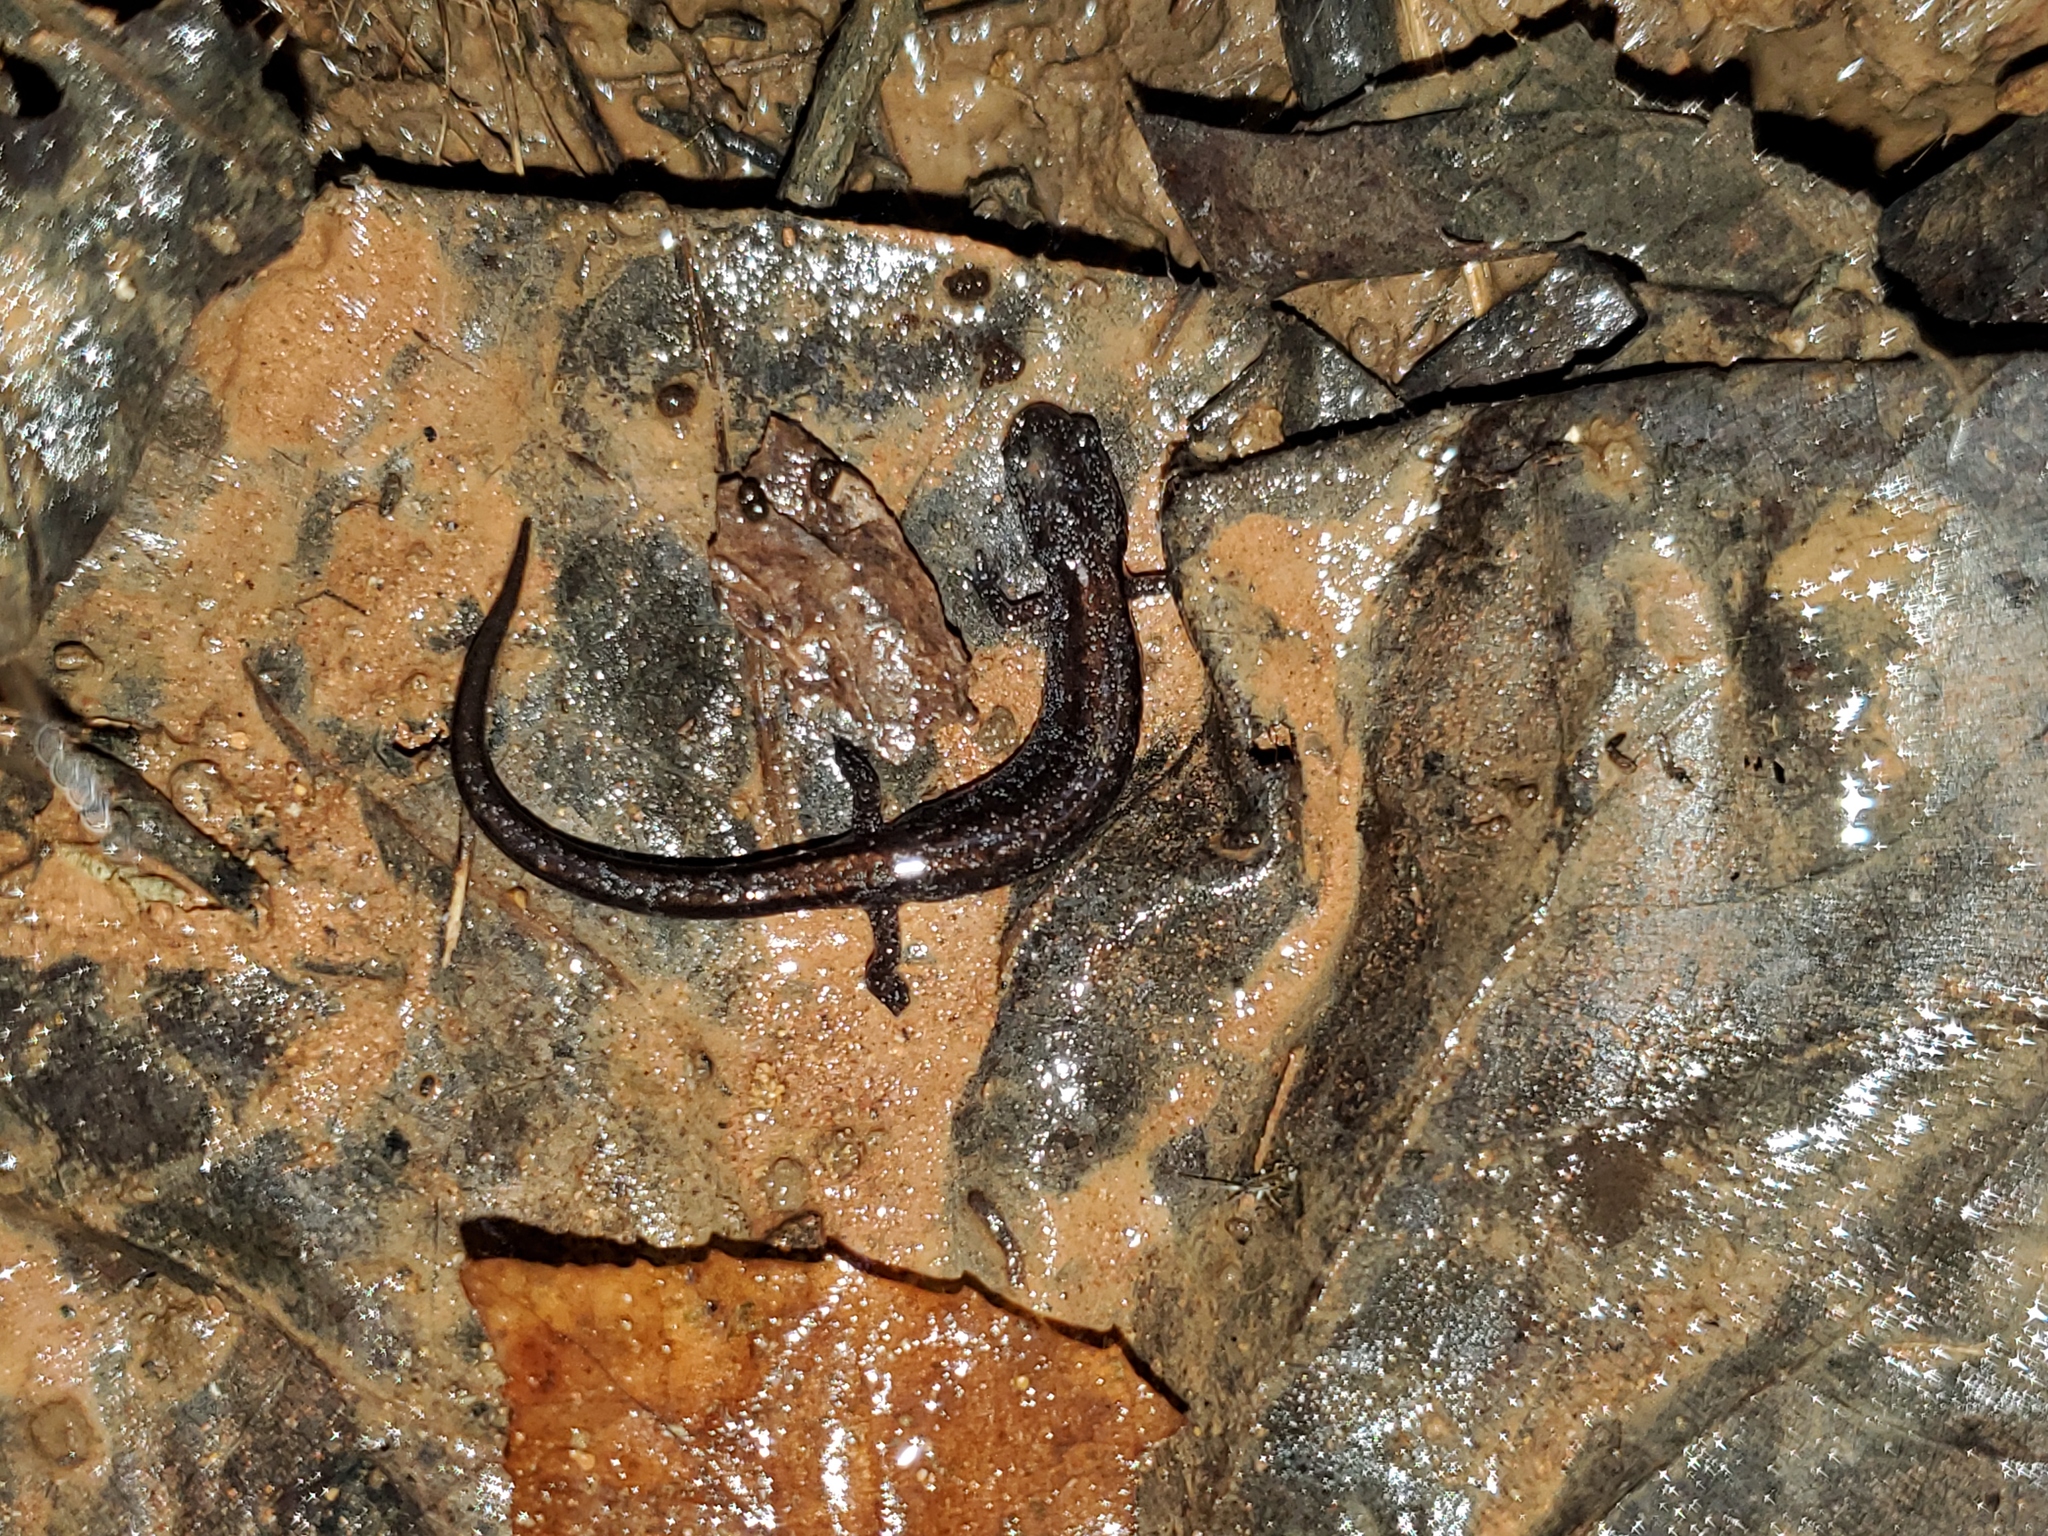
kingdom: Animalia
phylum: Chordata
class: Amphibia
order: Caudata
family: Plethodontidae
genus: Plethodon
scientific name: Plethodon dorsalis
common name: Northern zigzag salamander
